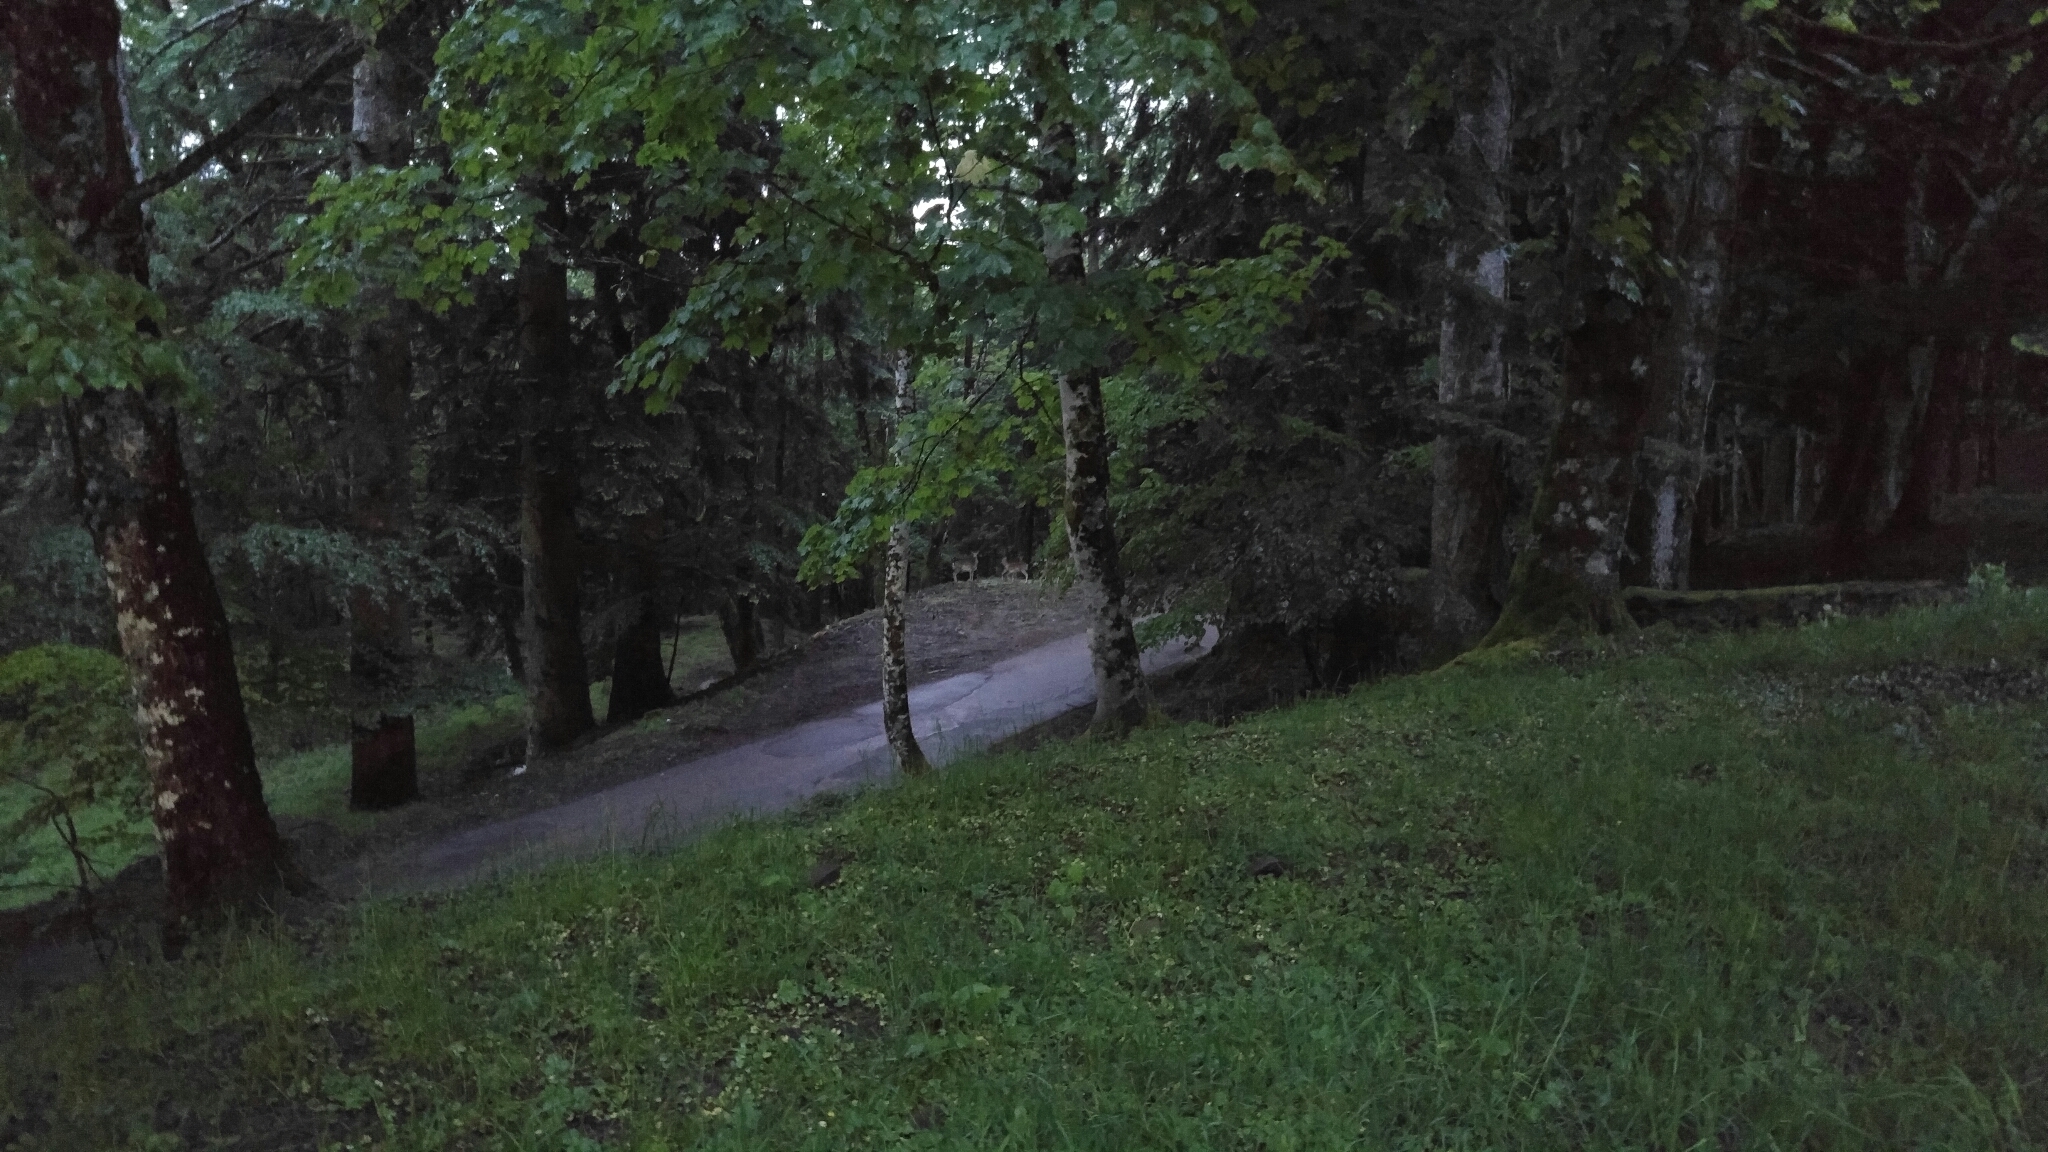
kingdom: Animalia
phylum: Chordata
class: Mammalia
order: Artiodactyla
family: Cervidae
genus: Dama
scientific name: Dama dama
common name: Fallow deer
